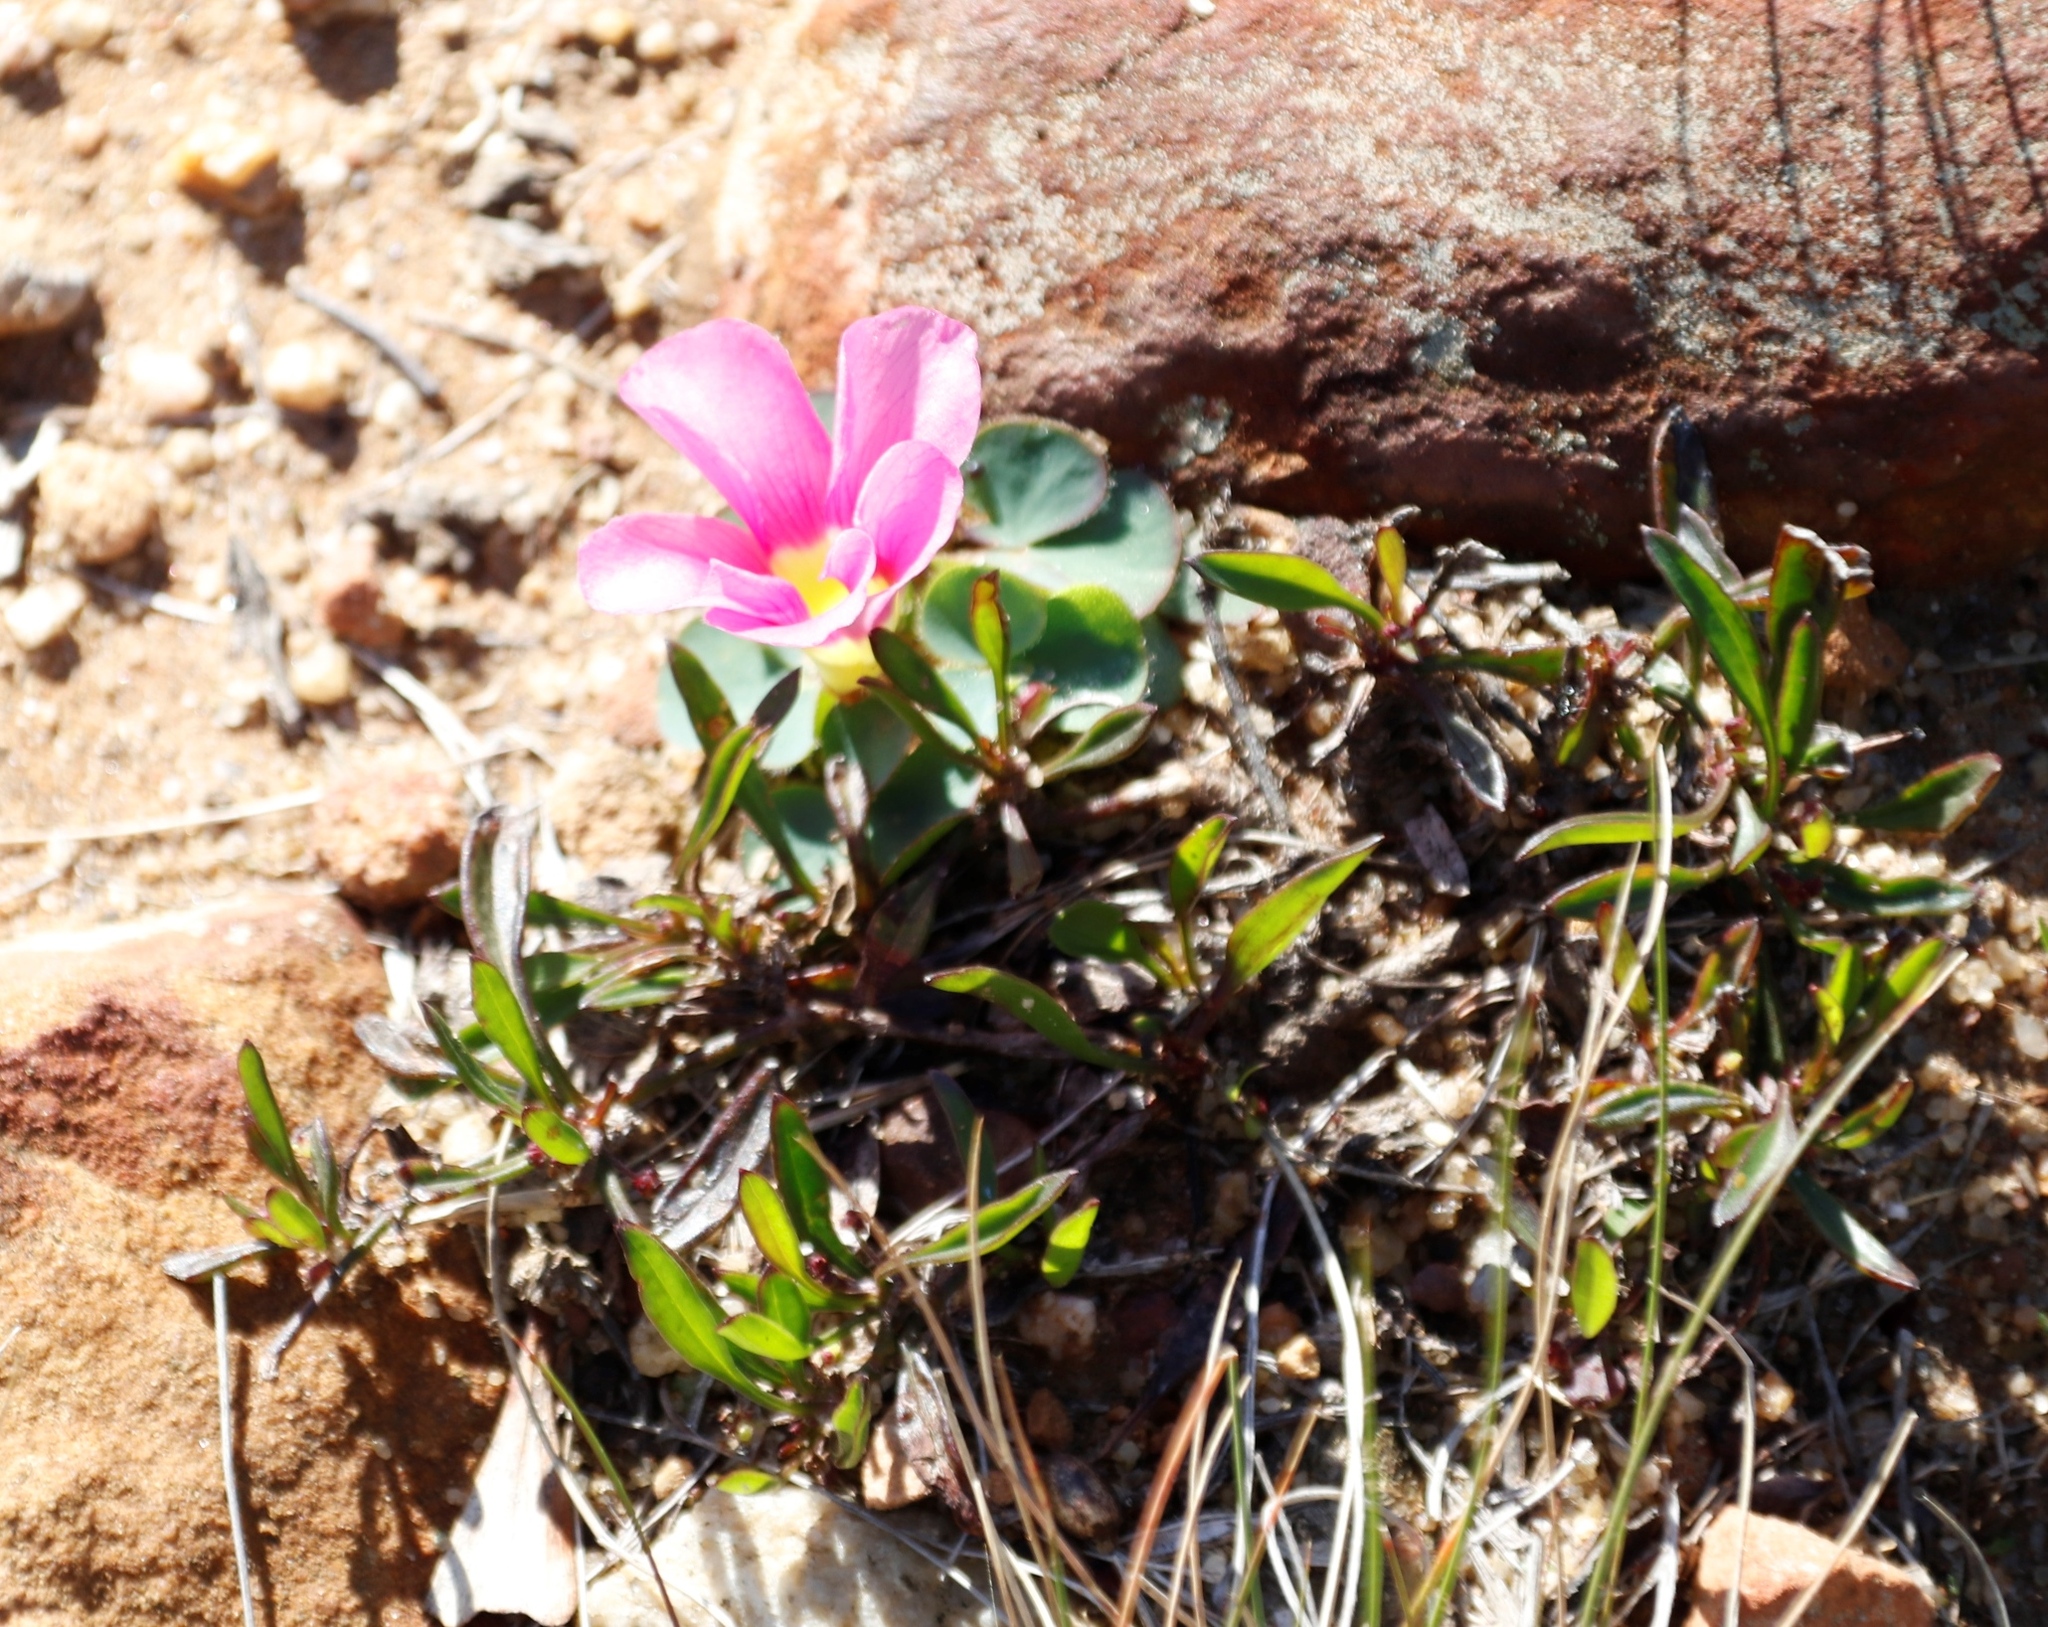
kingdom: Plantae
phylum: Tracheophyta
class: Magnoliopsida
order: Oxalidales
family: Oxalidaceae
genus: Oxalis
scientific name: Oxalis purpurea
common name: Purple woodsorrel
